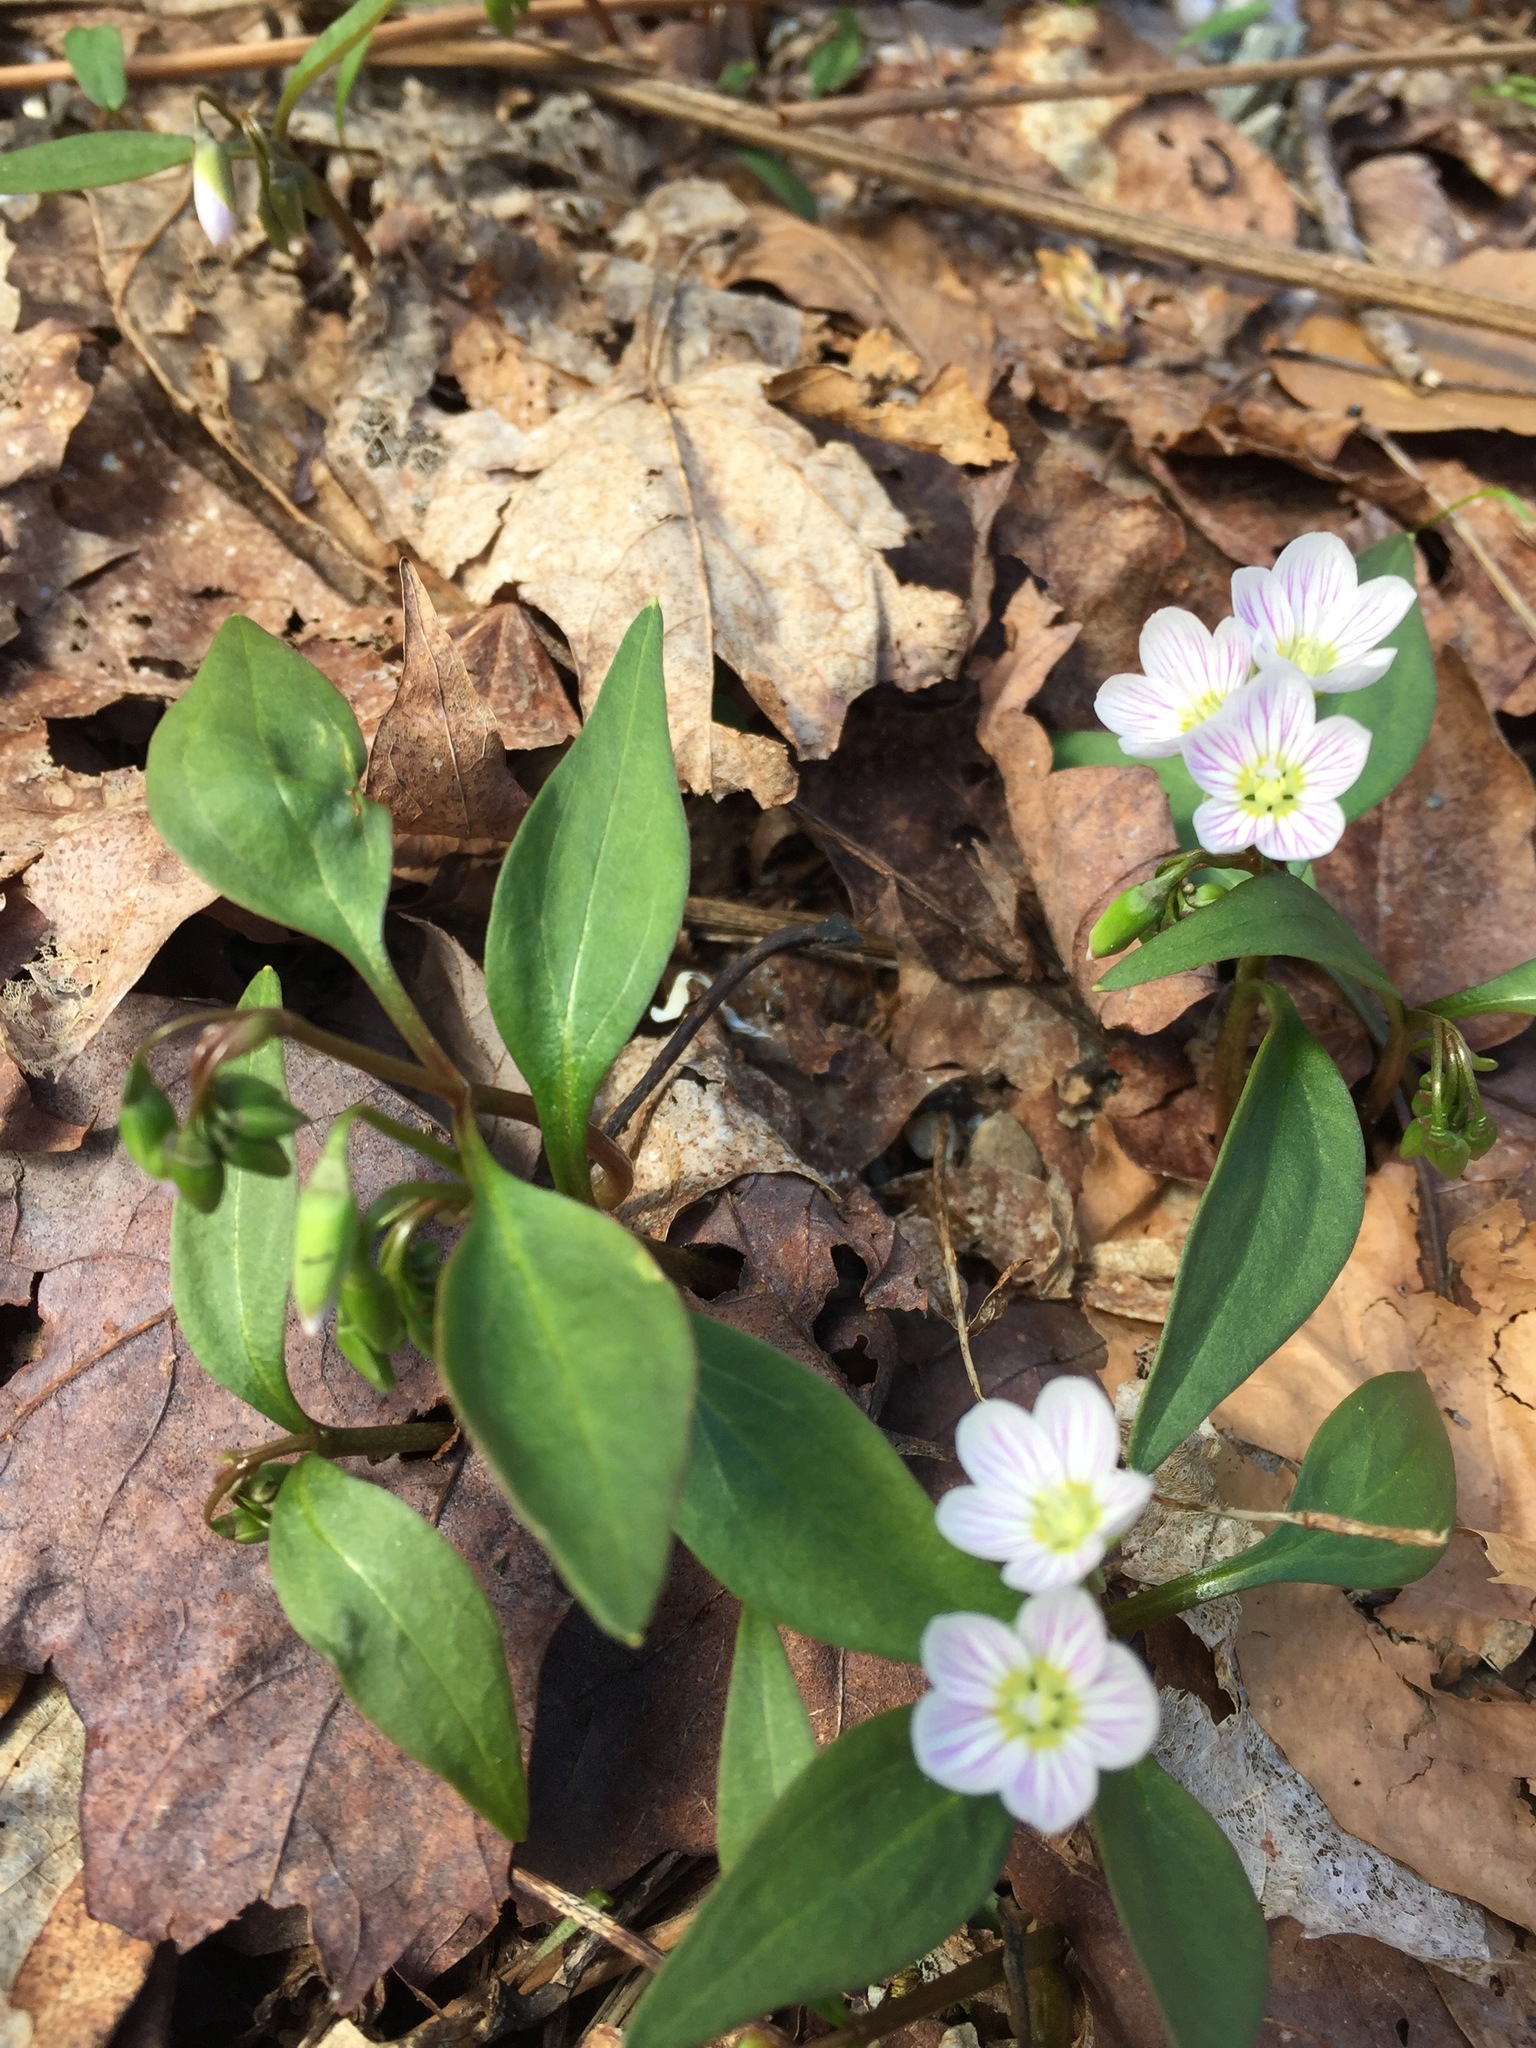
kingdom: Plantae
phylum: Tracheophyta
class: Magnoliopsida
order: Caryophyllales
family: Montiaceae
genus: Claytonia
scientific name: Claytonia caroliniana
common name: Carolina spring beauty
